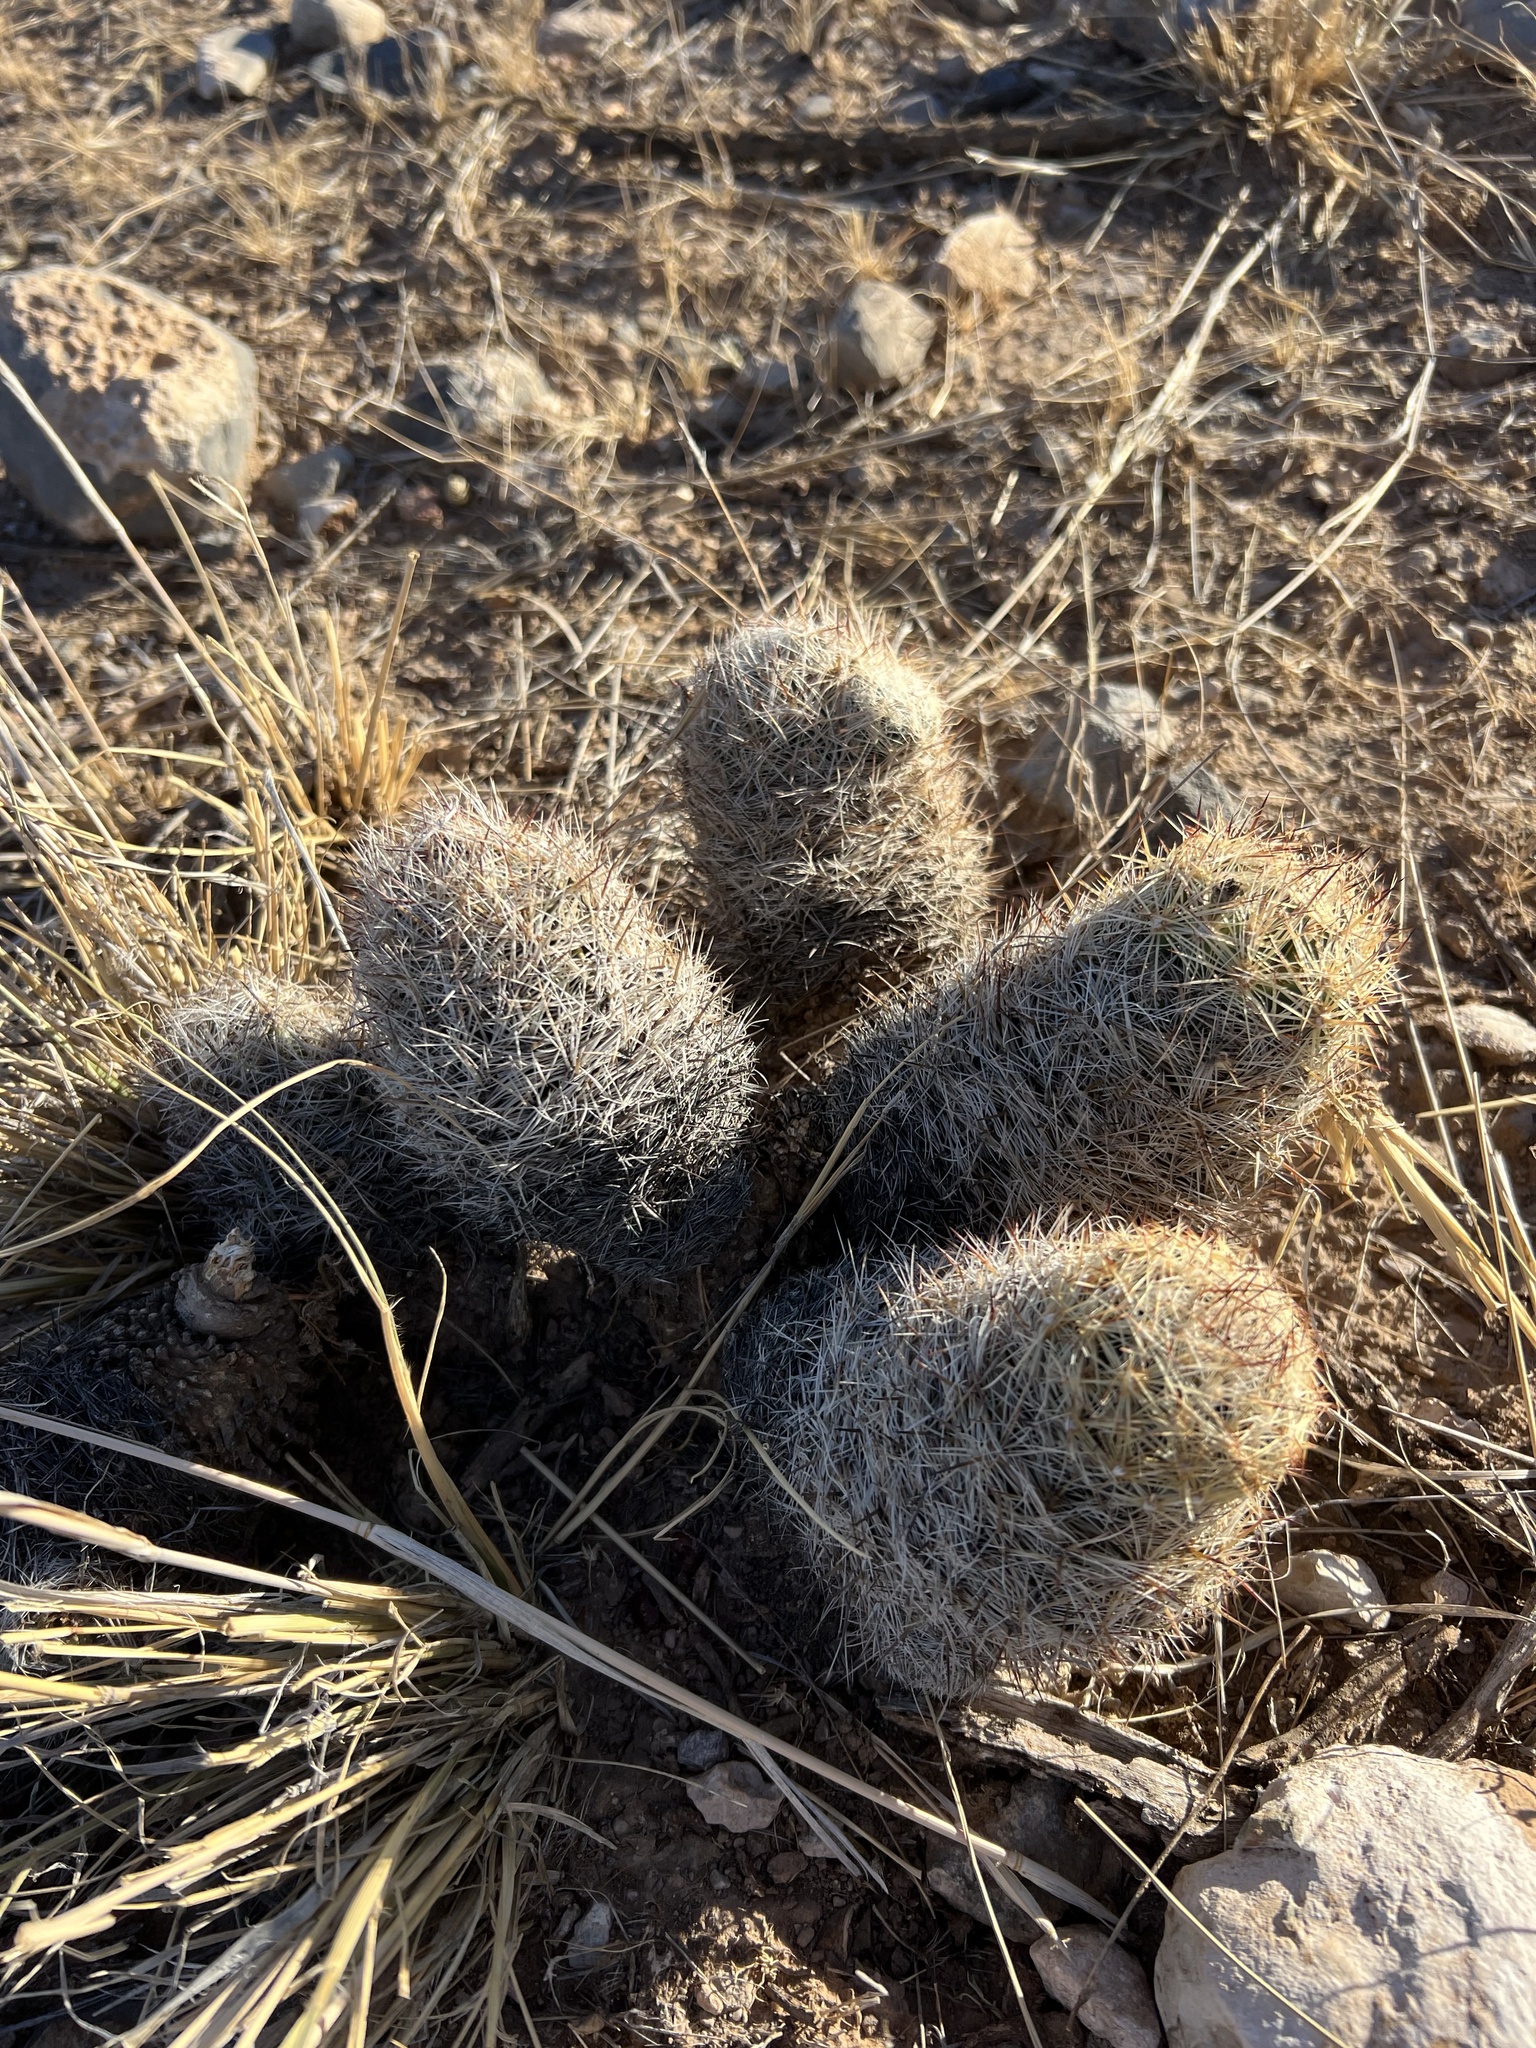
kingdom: Plantae
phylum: Tracheophyta
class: Magnoliopsida
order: Caryophyllales
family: Cactaceae
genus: Pelecyphora
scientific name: Pelecyphora vivipara
